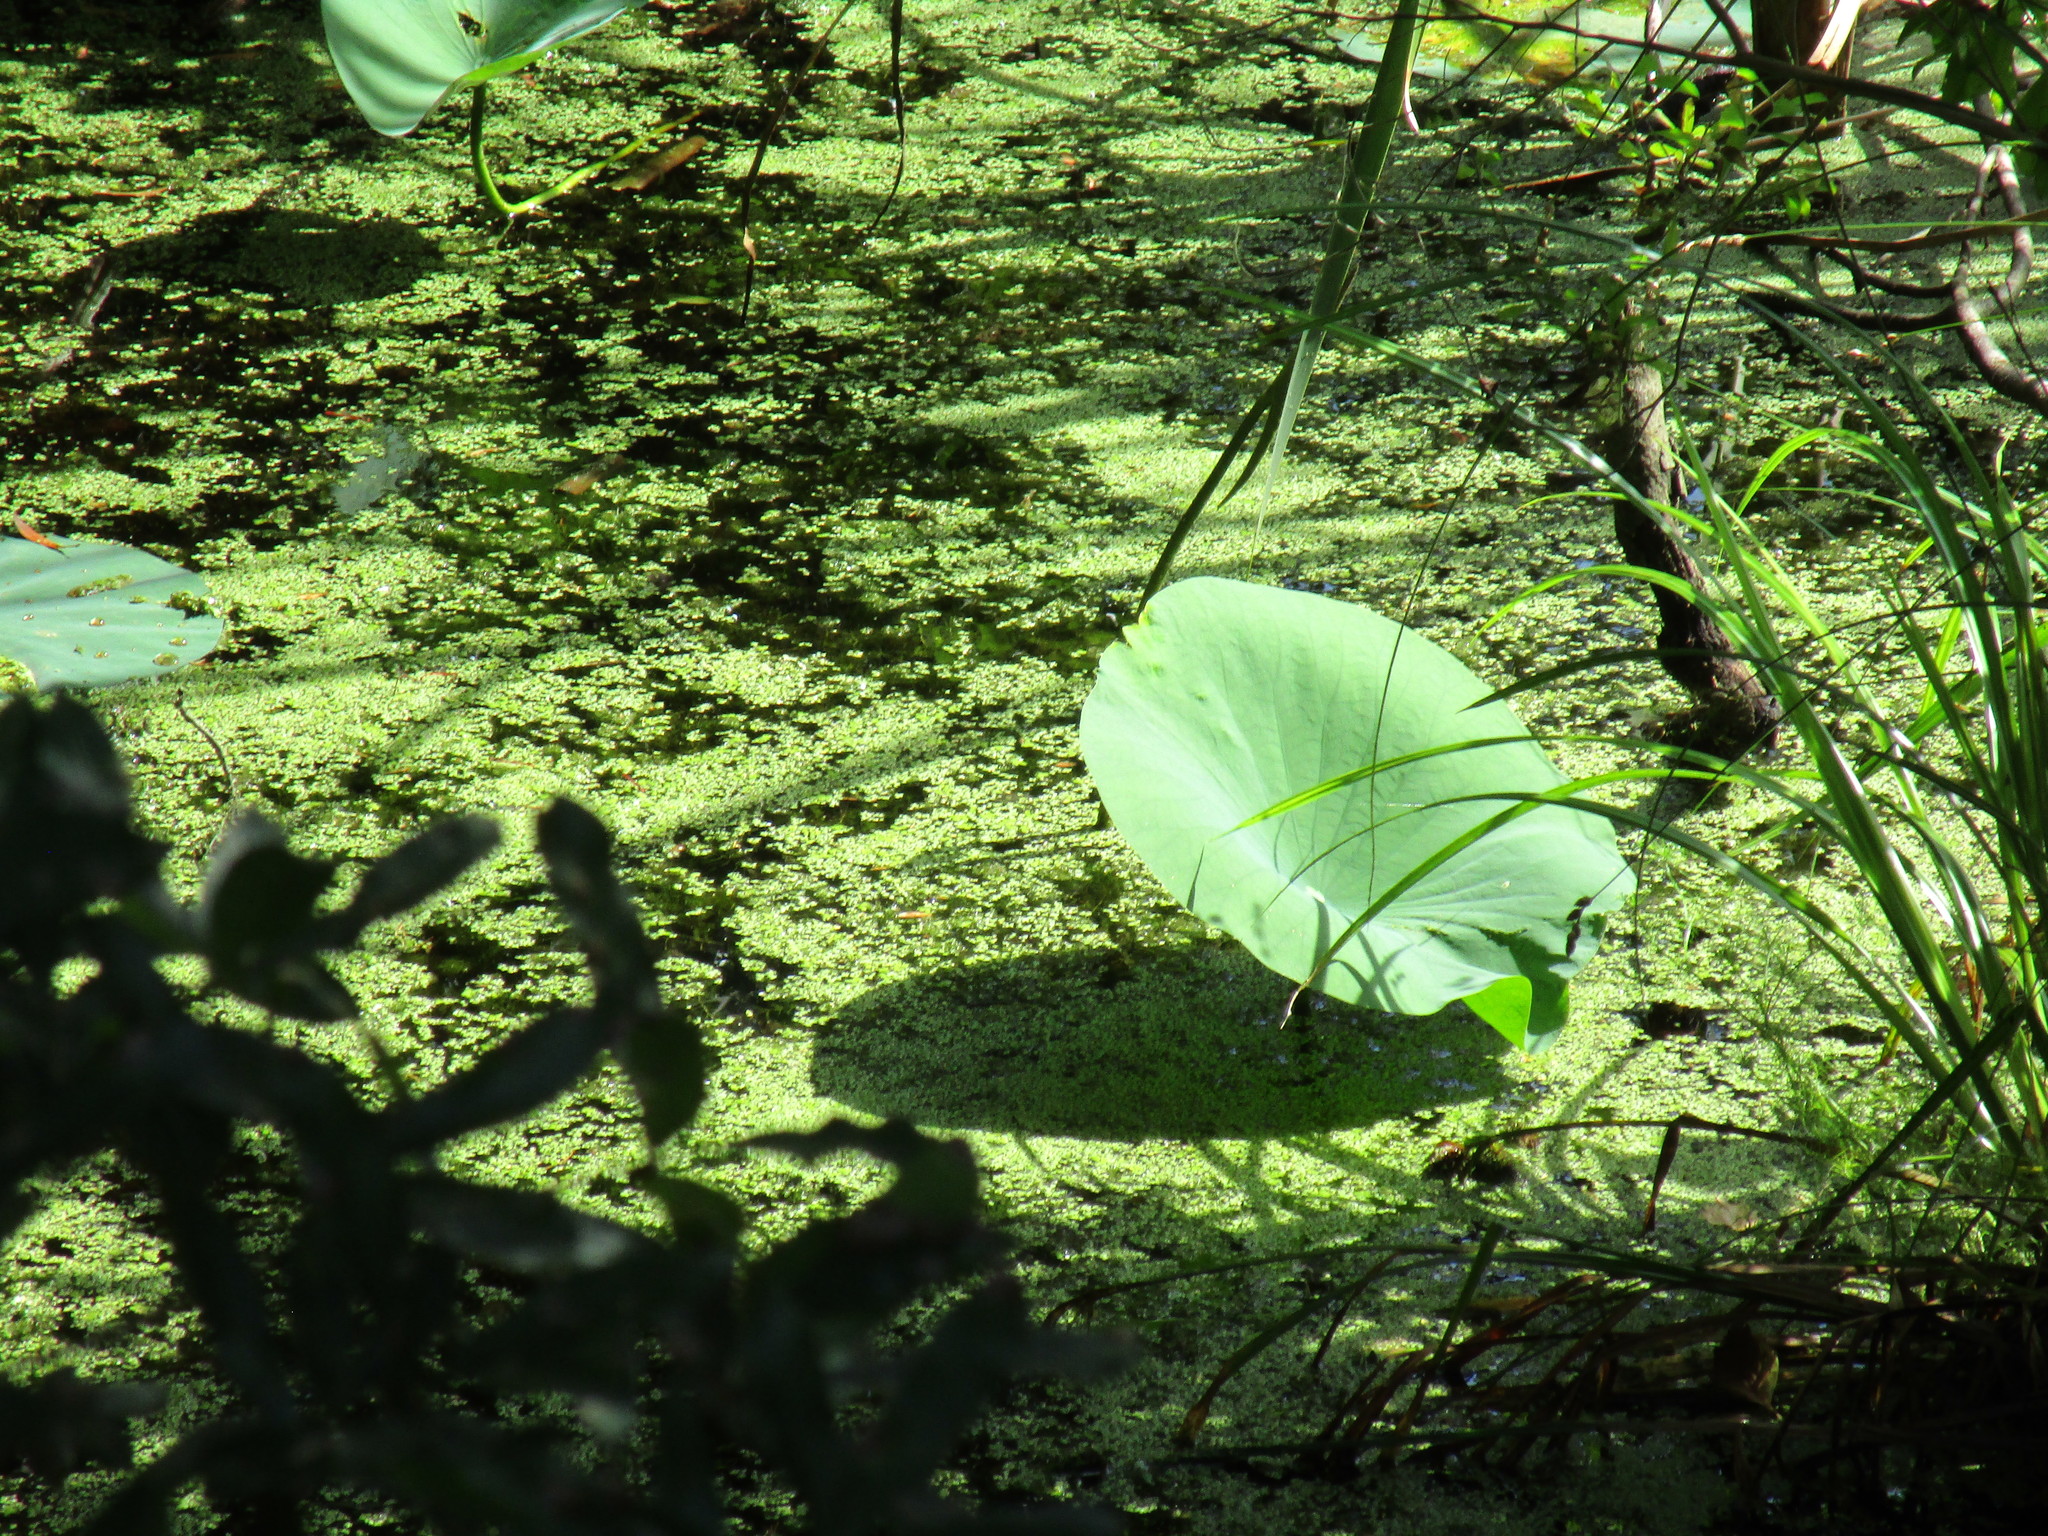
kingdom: Plantae
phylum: Tracheophyta
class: Magnoliopsida
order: Proteales
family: Nelumbonaceae
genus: Nelumbo
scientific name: Nelumbo lutea
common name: American lotus
